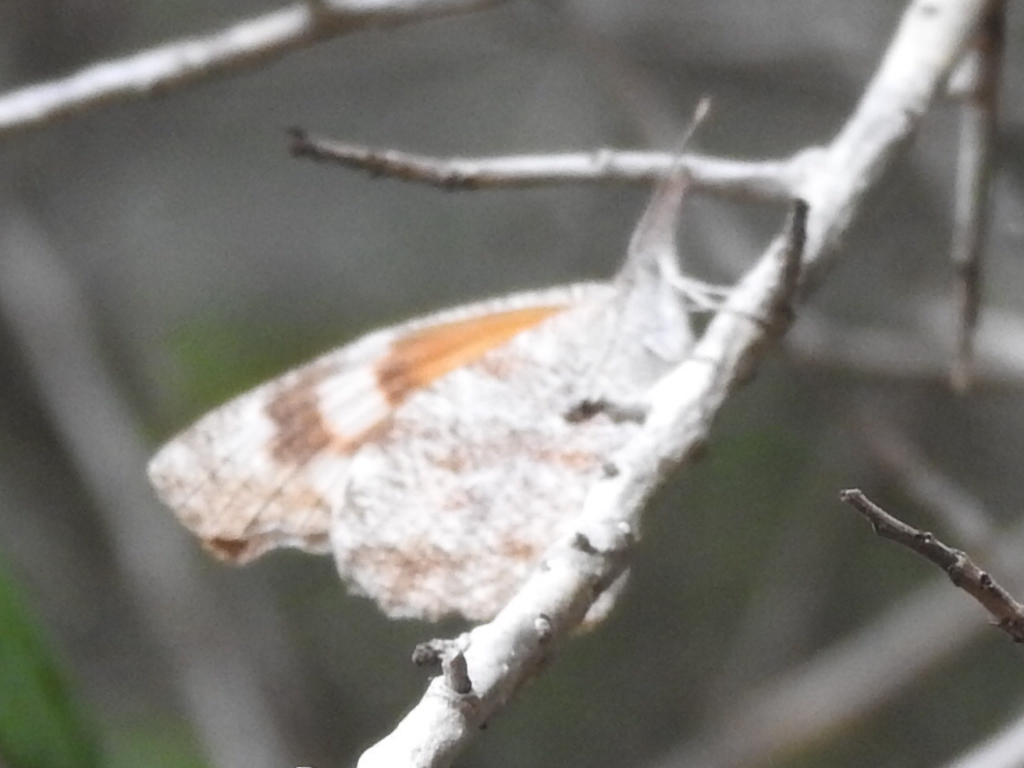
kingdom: Animalia
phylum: Arthropoda
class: Insecta
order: Lepidoptera
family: Nymphalidae
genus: Libytheana
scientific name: Libytheana carinenta
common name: American snout
